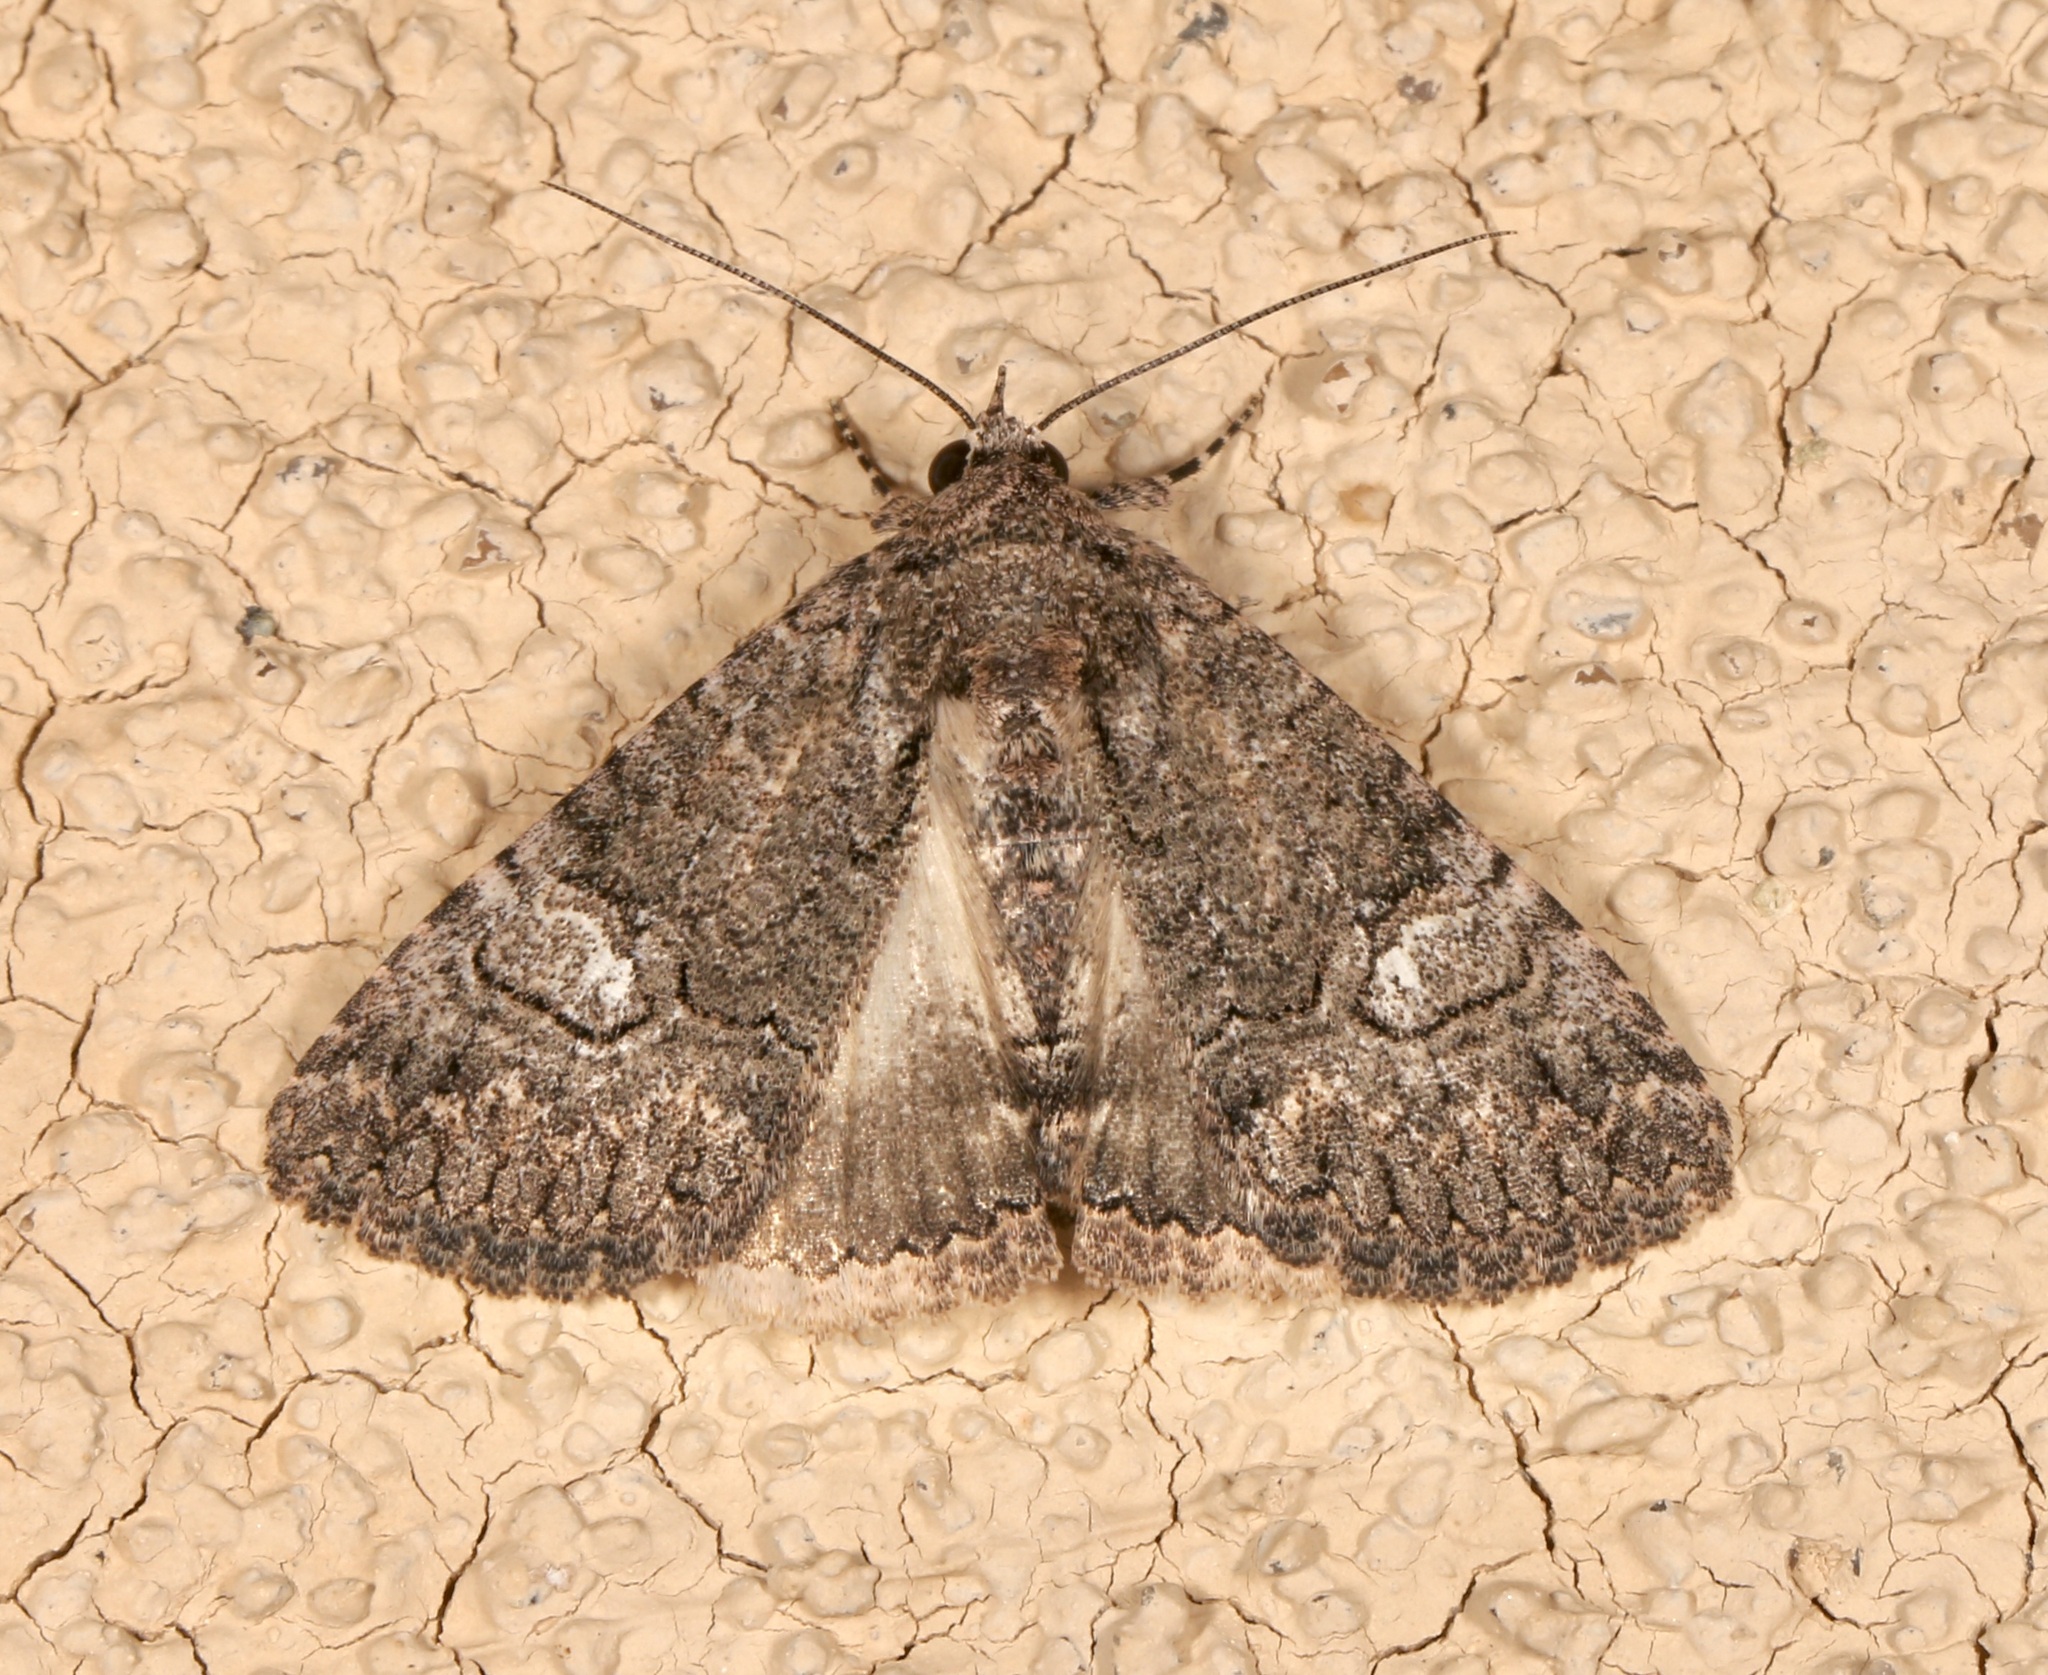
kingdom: Animalia
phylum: Arthropoda
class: Insecta
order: Lepidoptera
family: Erebidae
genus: Elousa
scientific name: Elousa mima
